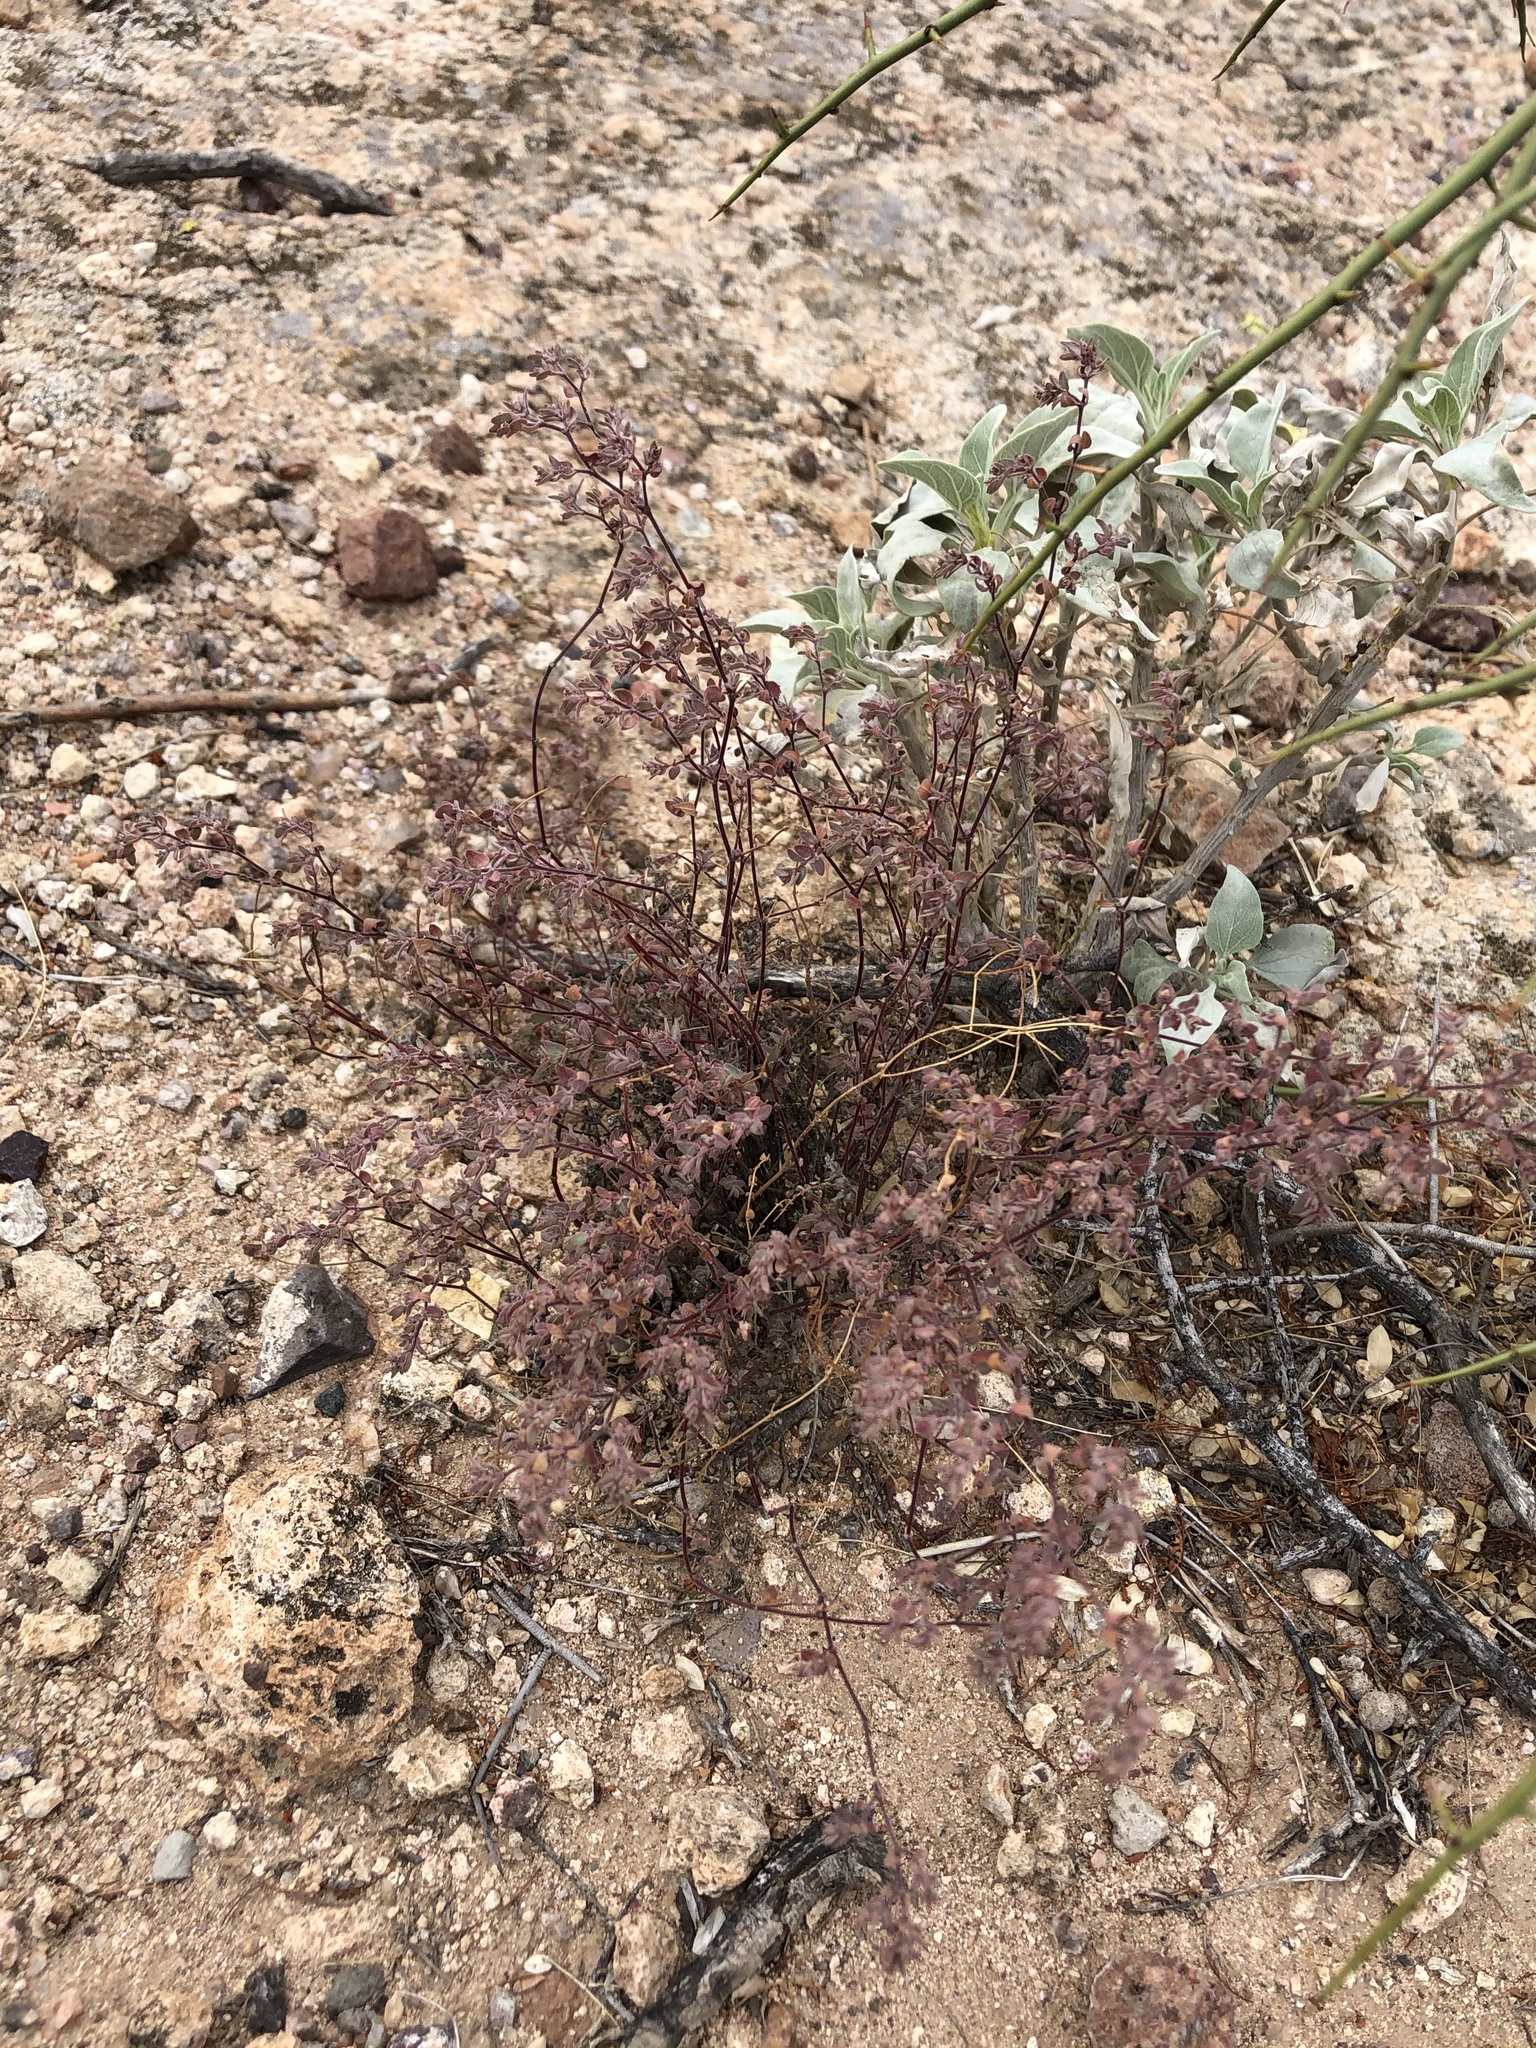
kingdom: Plantae
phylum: Tracheophyta
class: Magnoliopsida
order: Malpighiales
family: Euphorbiaceae
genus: Euphorbia
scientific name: Euphorbia melanadenia
